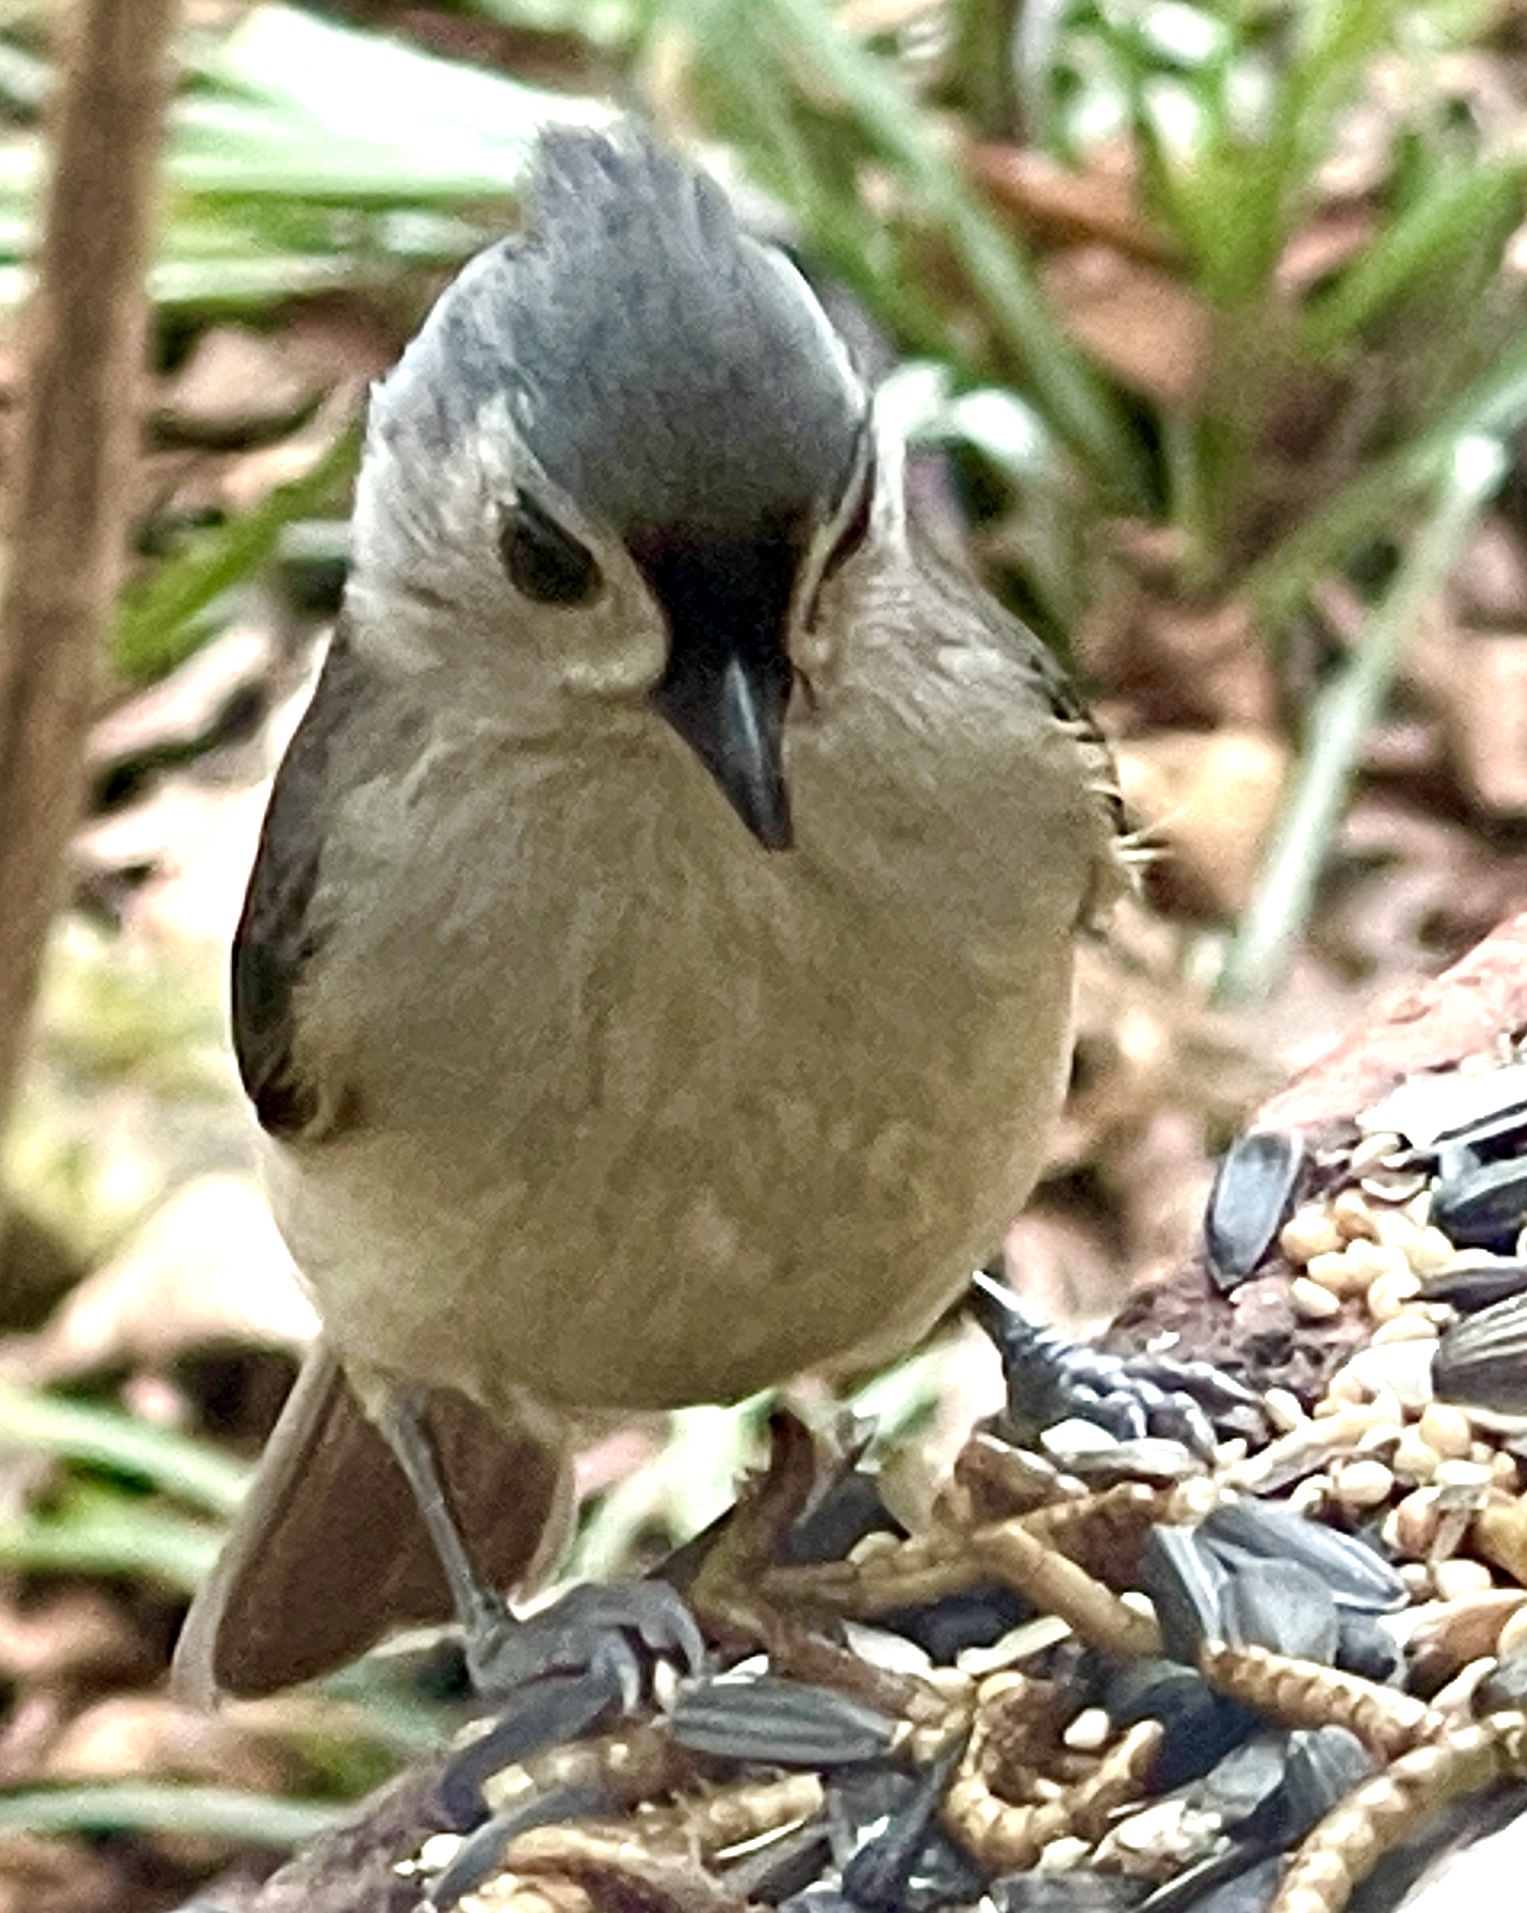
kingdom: Animalia
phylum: Chordata
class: Aves
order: Passeriformes
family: Paridae
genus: Baeolophus
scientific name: Baeolophus bicolor
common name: Tufted titmouse
